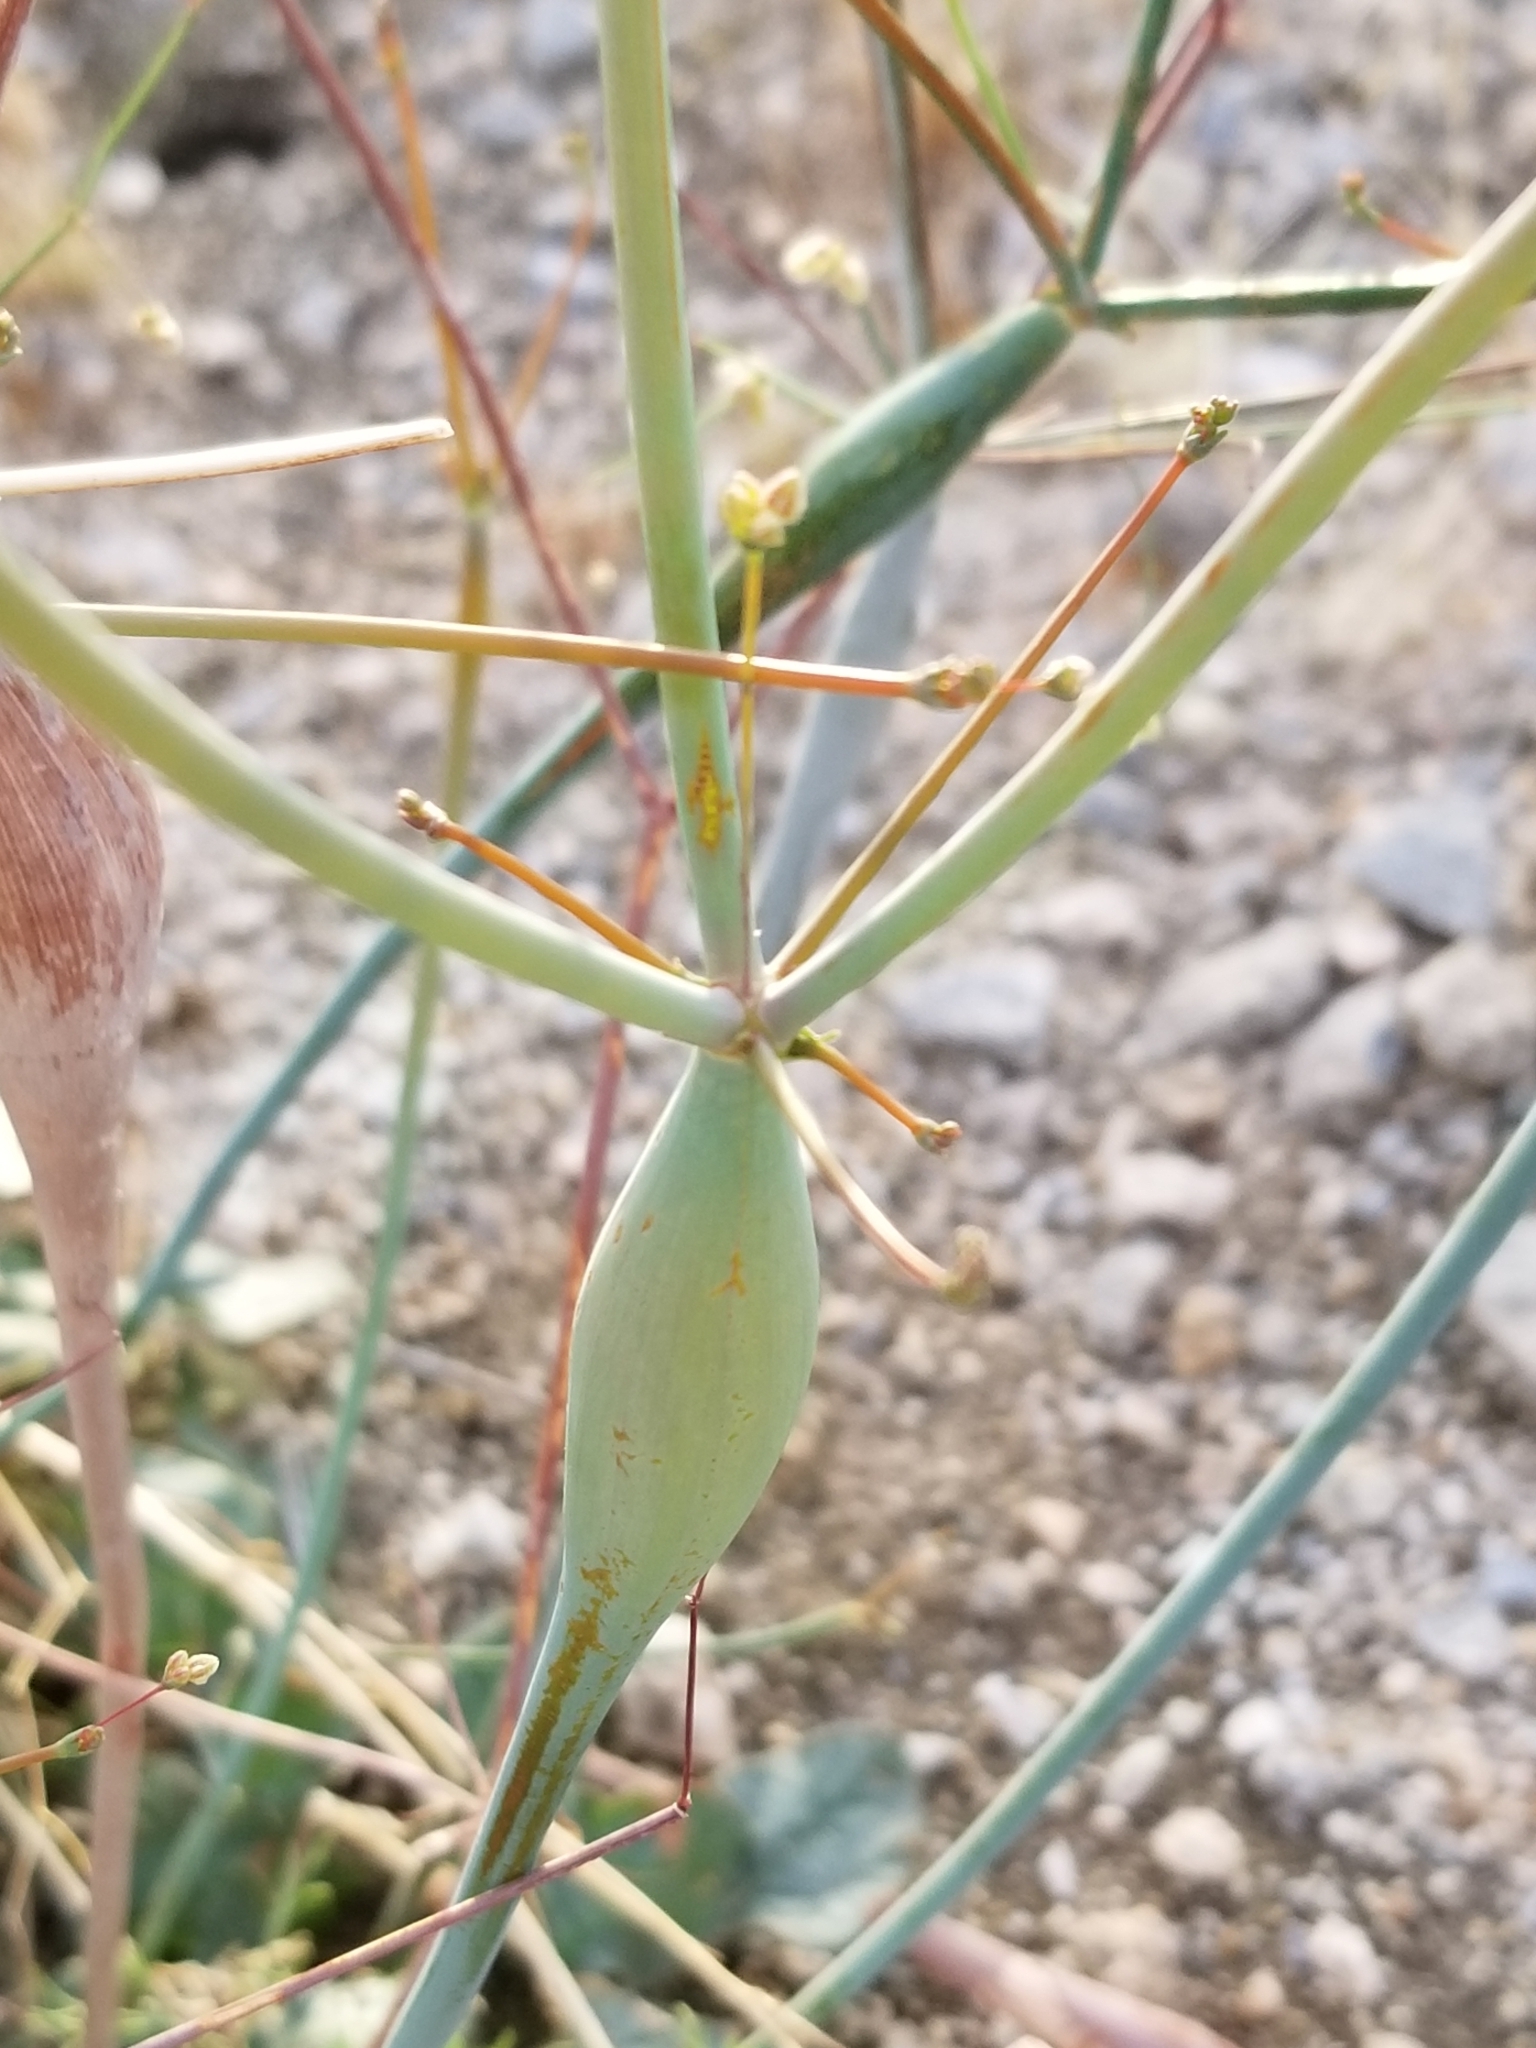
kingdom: Plantae
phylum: Tracheophyta
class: Magnoliopsida
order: Caryophyllales
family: Polygonaceae
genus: Eriogonum
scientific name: Eriogonum inflatum
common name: Desert trumpet
